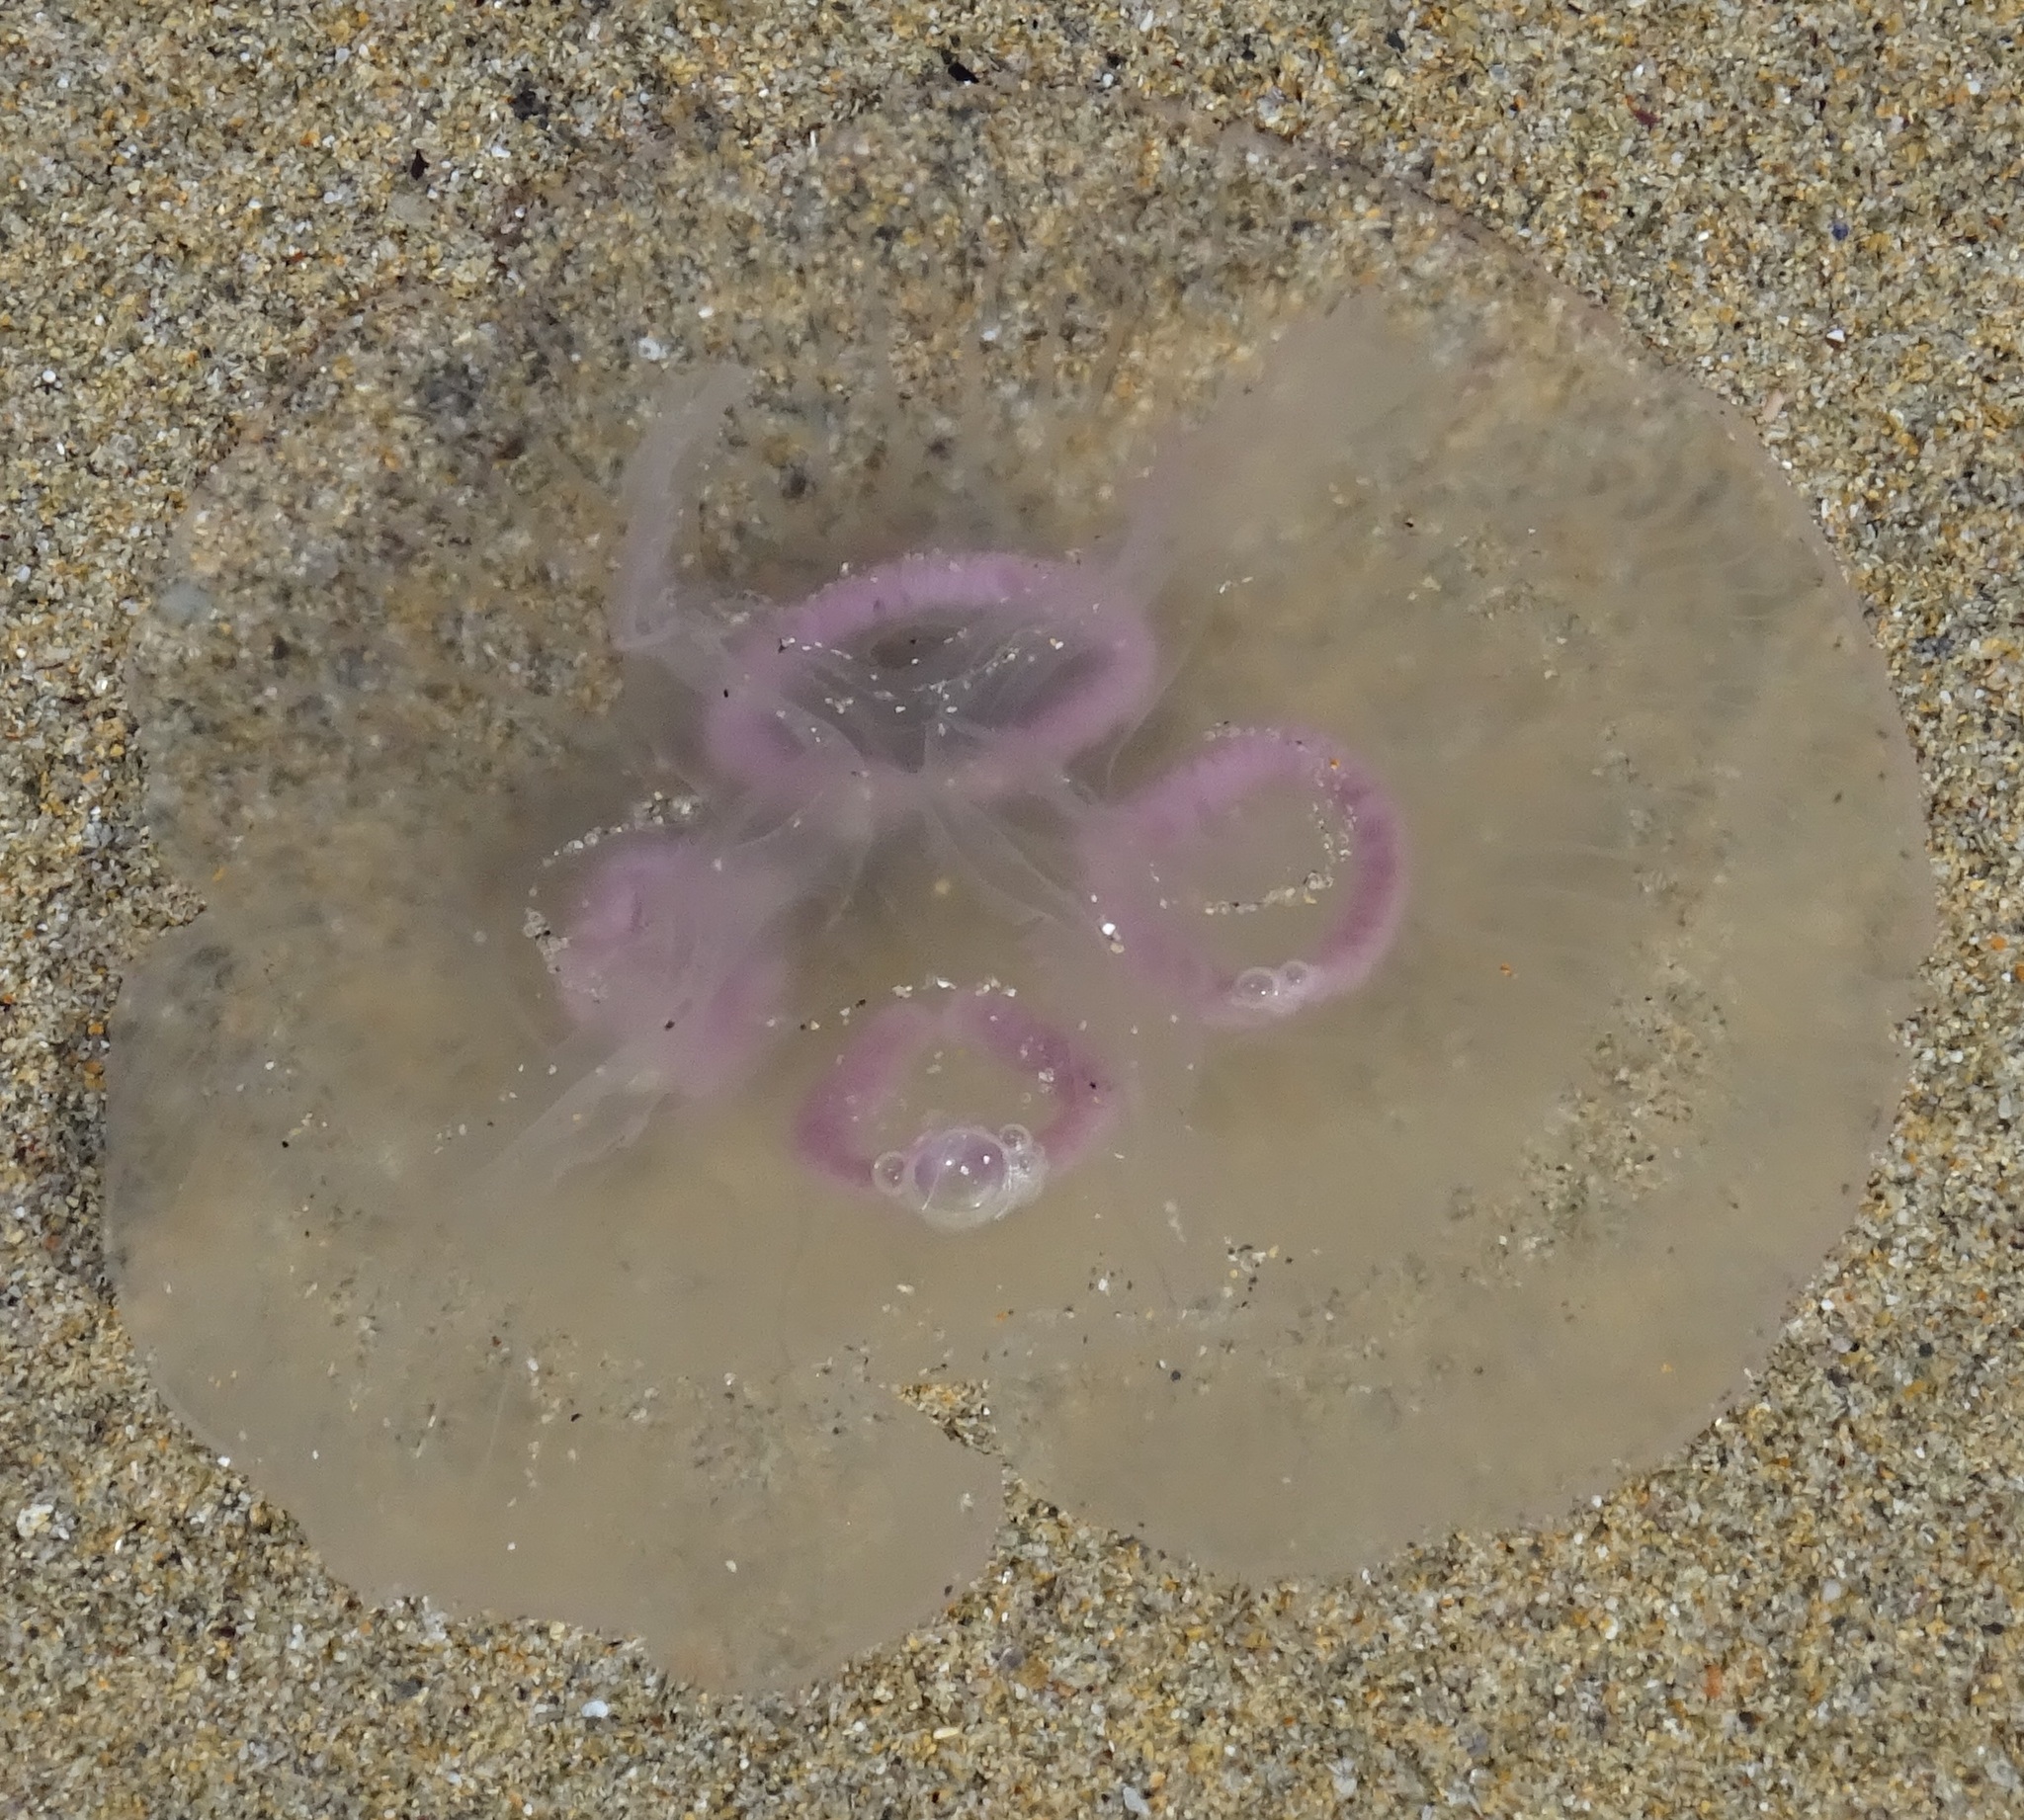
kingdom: Animalia
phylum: Cnidaria
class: Scyphozoa
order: Semaeostomeae
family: Ulmaridae
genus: Aurelia
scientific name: Aurelia aurita
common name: Moon jellyfish
